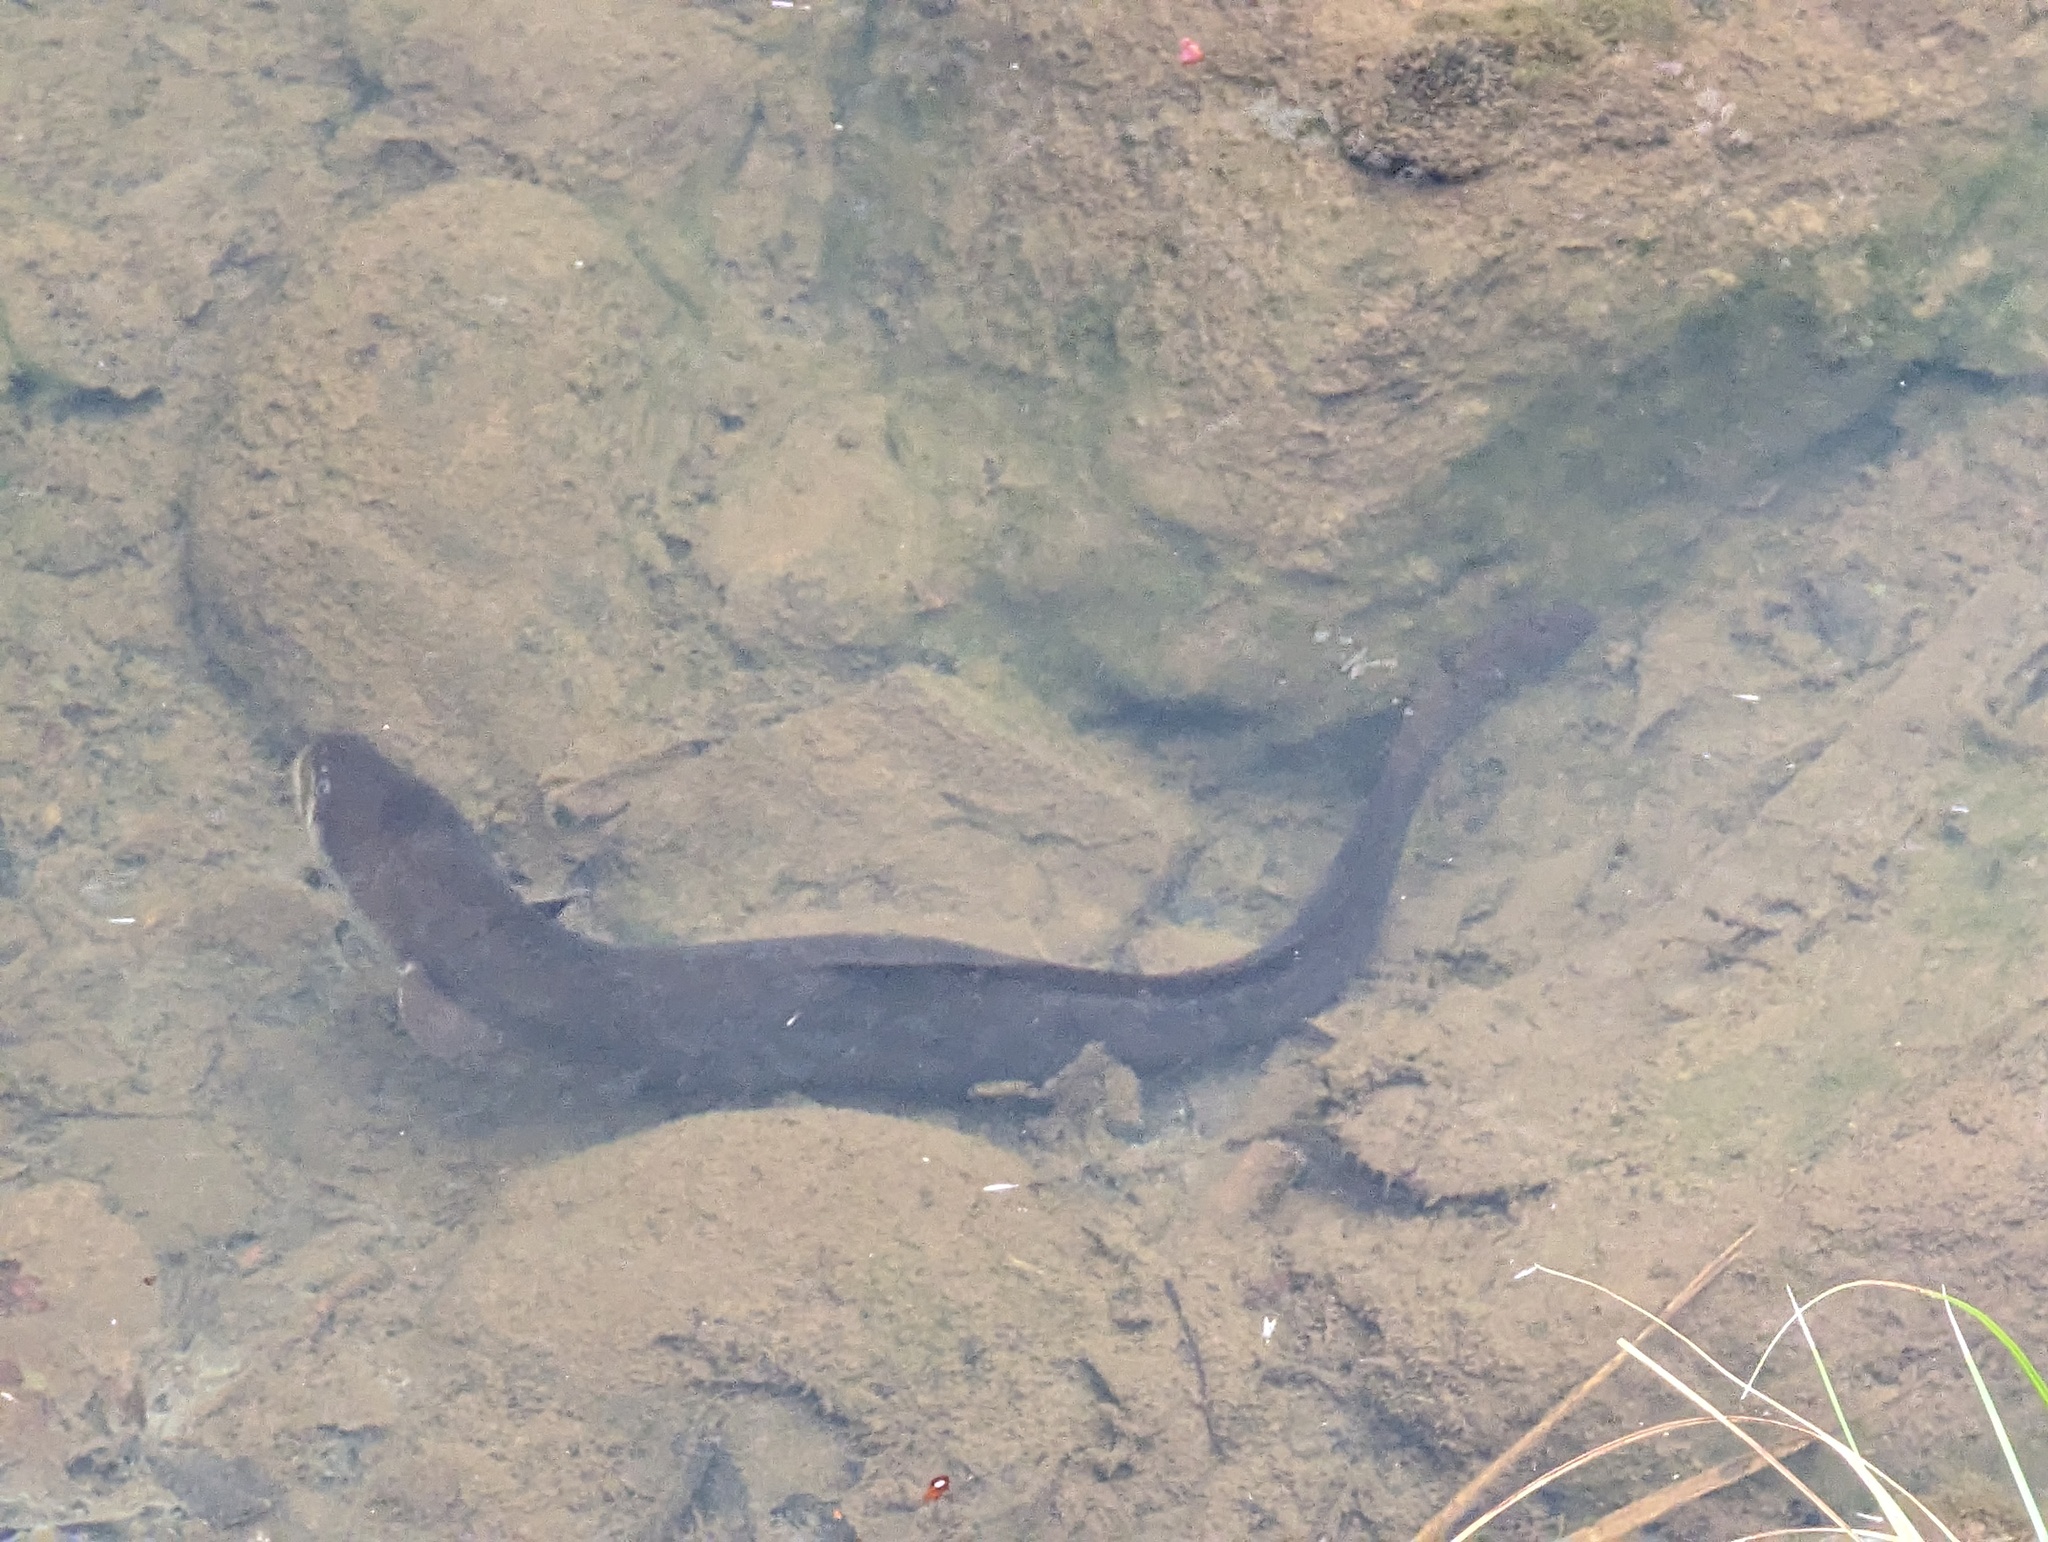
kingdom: Animalia
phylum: Chordata
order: Anguilliformes
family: Anguillidae
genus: Anguilla
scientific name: Anguilla dieffenbachii
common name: New zealand longfin eel
